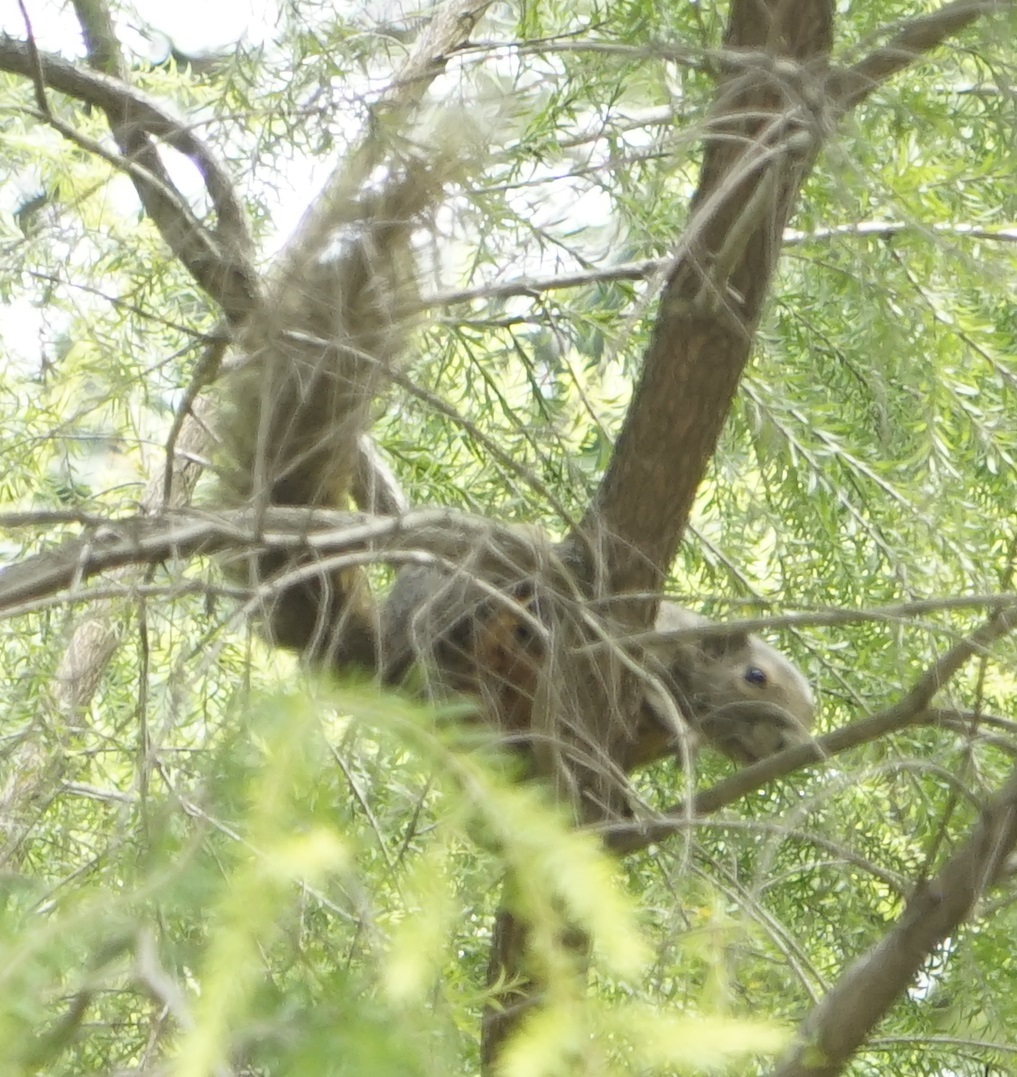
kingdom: Animalia
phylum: Chordata
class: Mammalia
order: Rodentia
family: Sciuridae
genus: Callosciurus
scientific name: Callosciurus notatus
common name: Plantain squirrel
